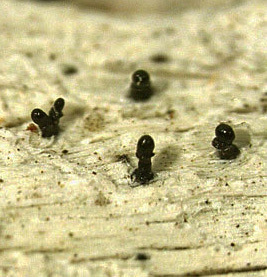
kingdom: Fungi
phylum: Ascomycota
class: Eurotiomycetes
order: Mycocaliciales
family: Sphinctrinaceae
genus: Sphinctrina
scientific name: Sphinctrina tubaeformis
